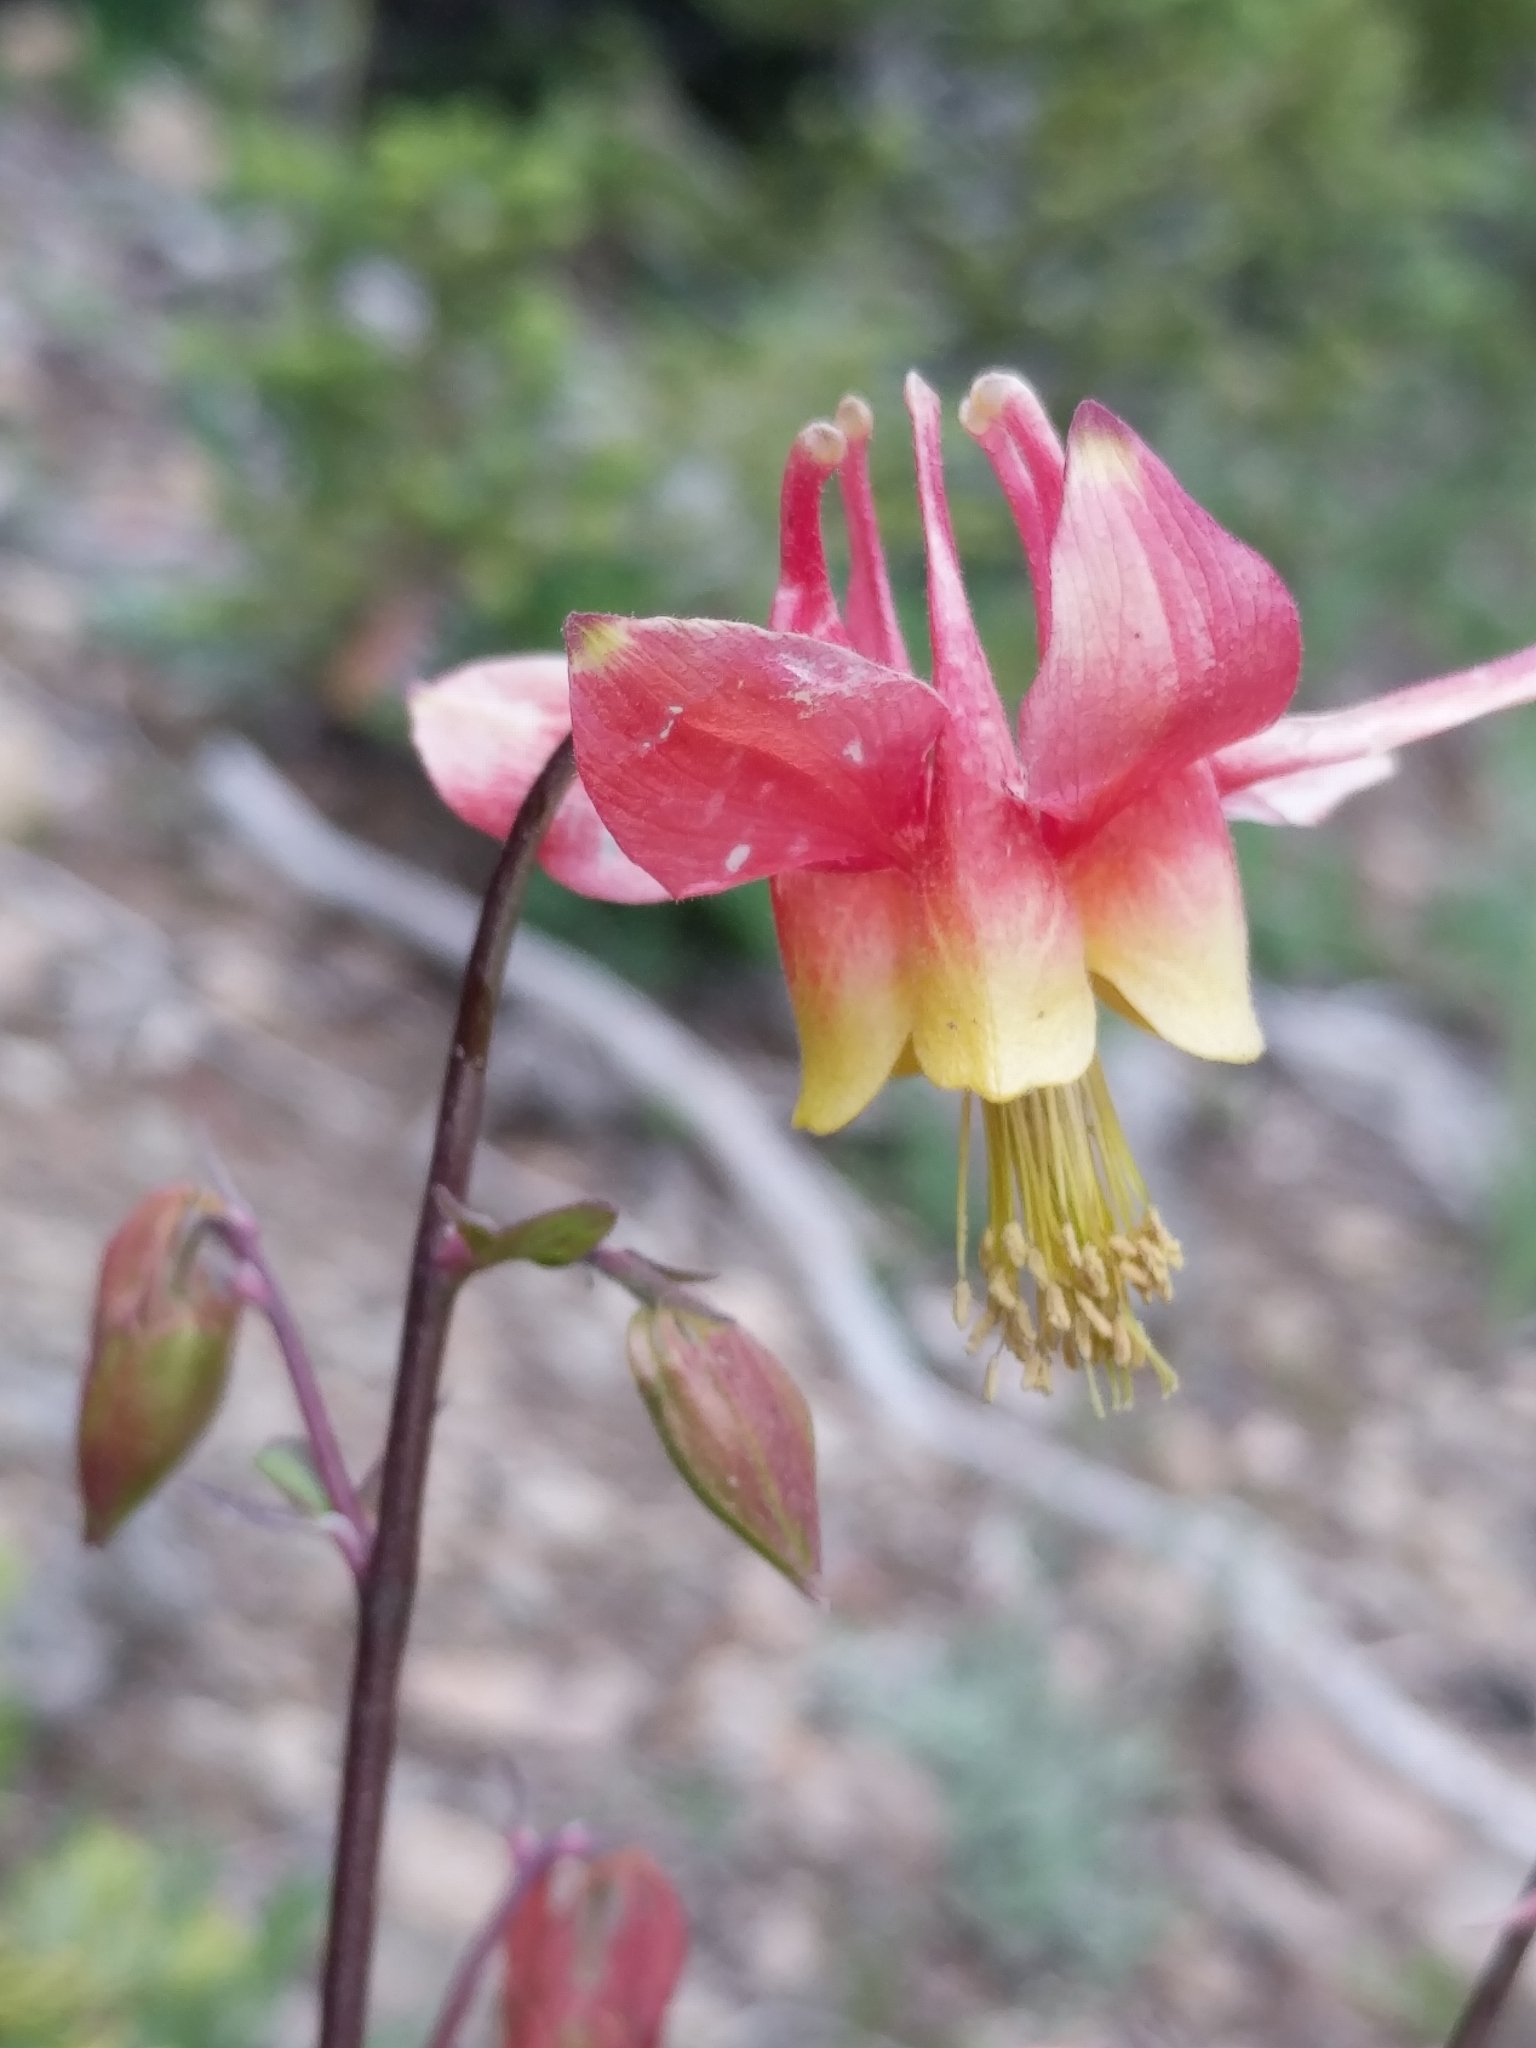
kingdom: Plantae
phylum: Tracheophyta
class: Magnoliopsida
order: Ranunculales
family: Ranunculaceae
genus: Aquilegia
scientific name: Aquilegia formosa
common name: Sitka columbine
